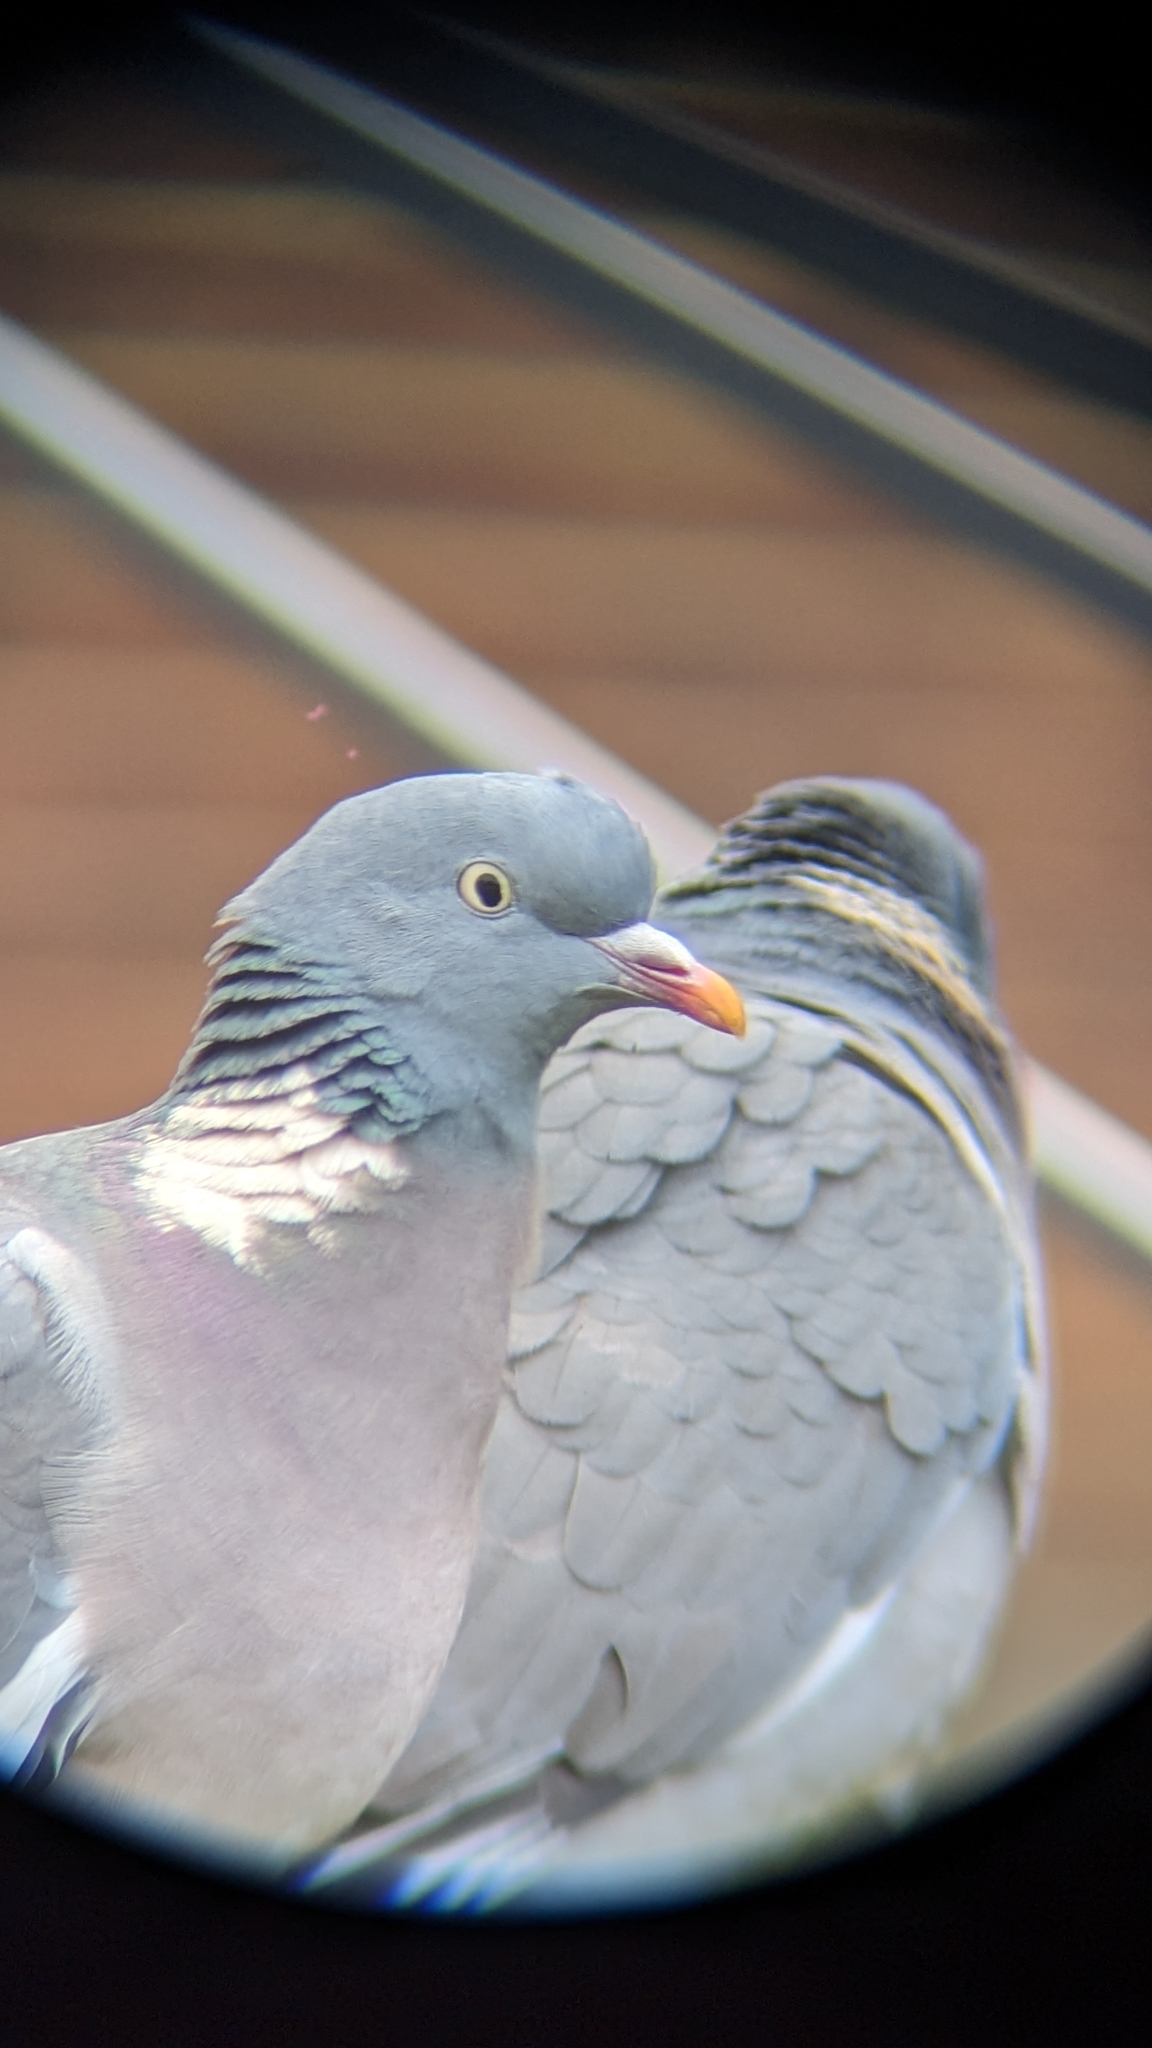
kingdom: Animalia
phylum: Chordata
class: Aves
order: Columbiformes
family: Columbidae
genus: Columba
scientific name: Columba palumbus
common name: Common wood pigeon
